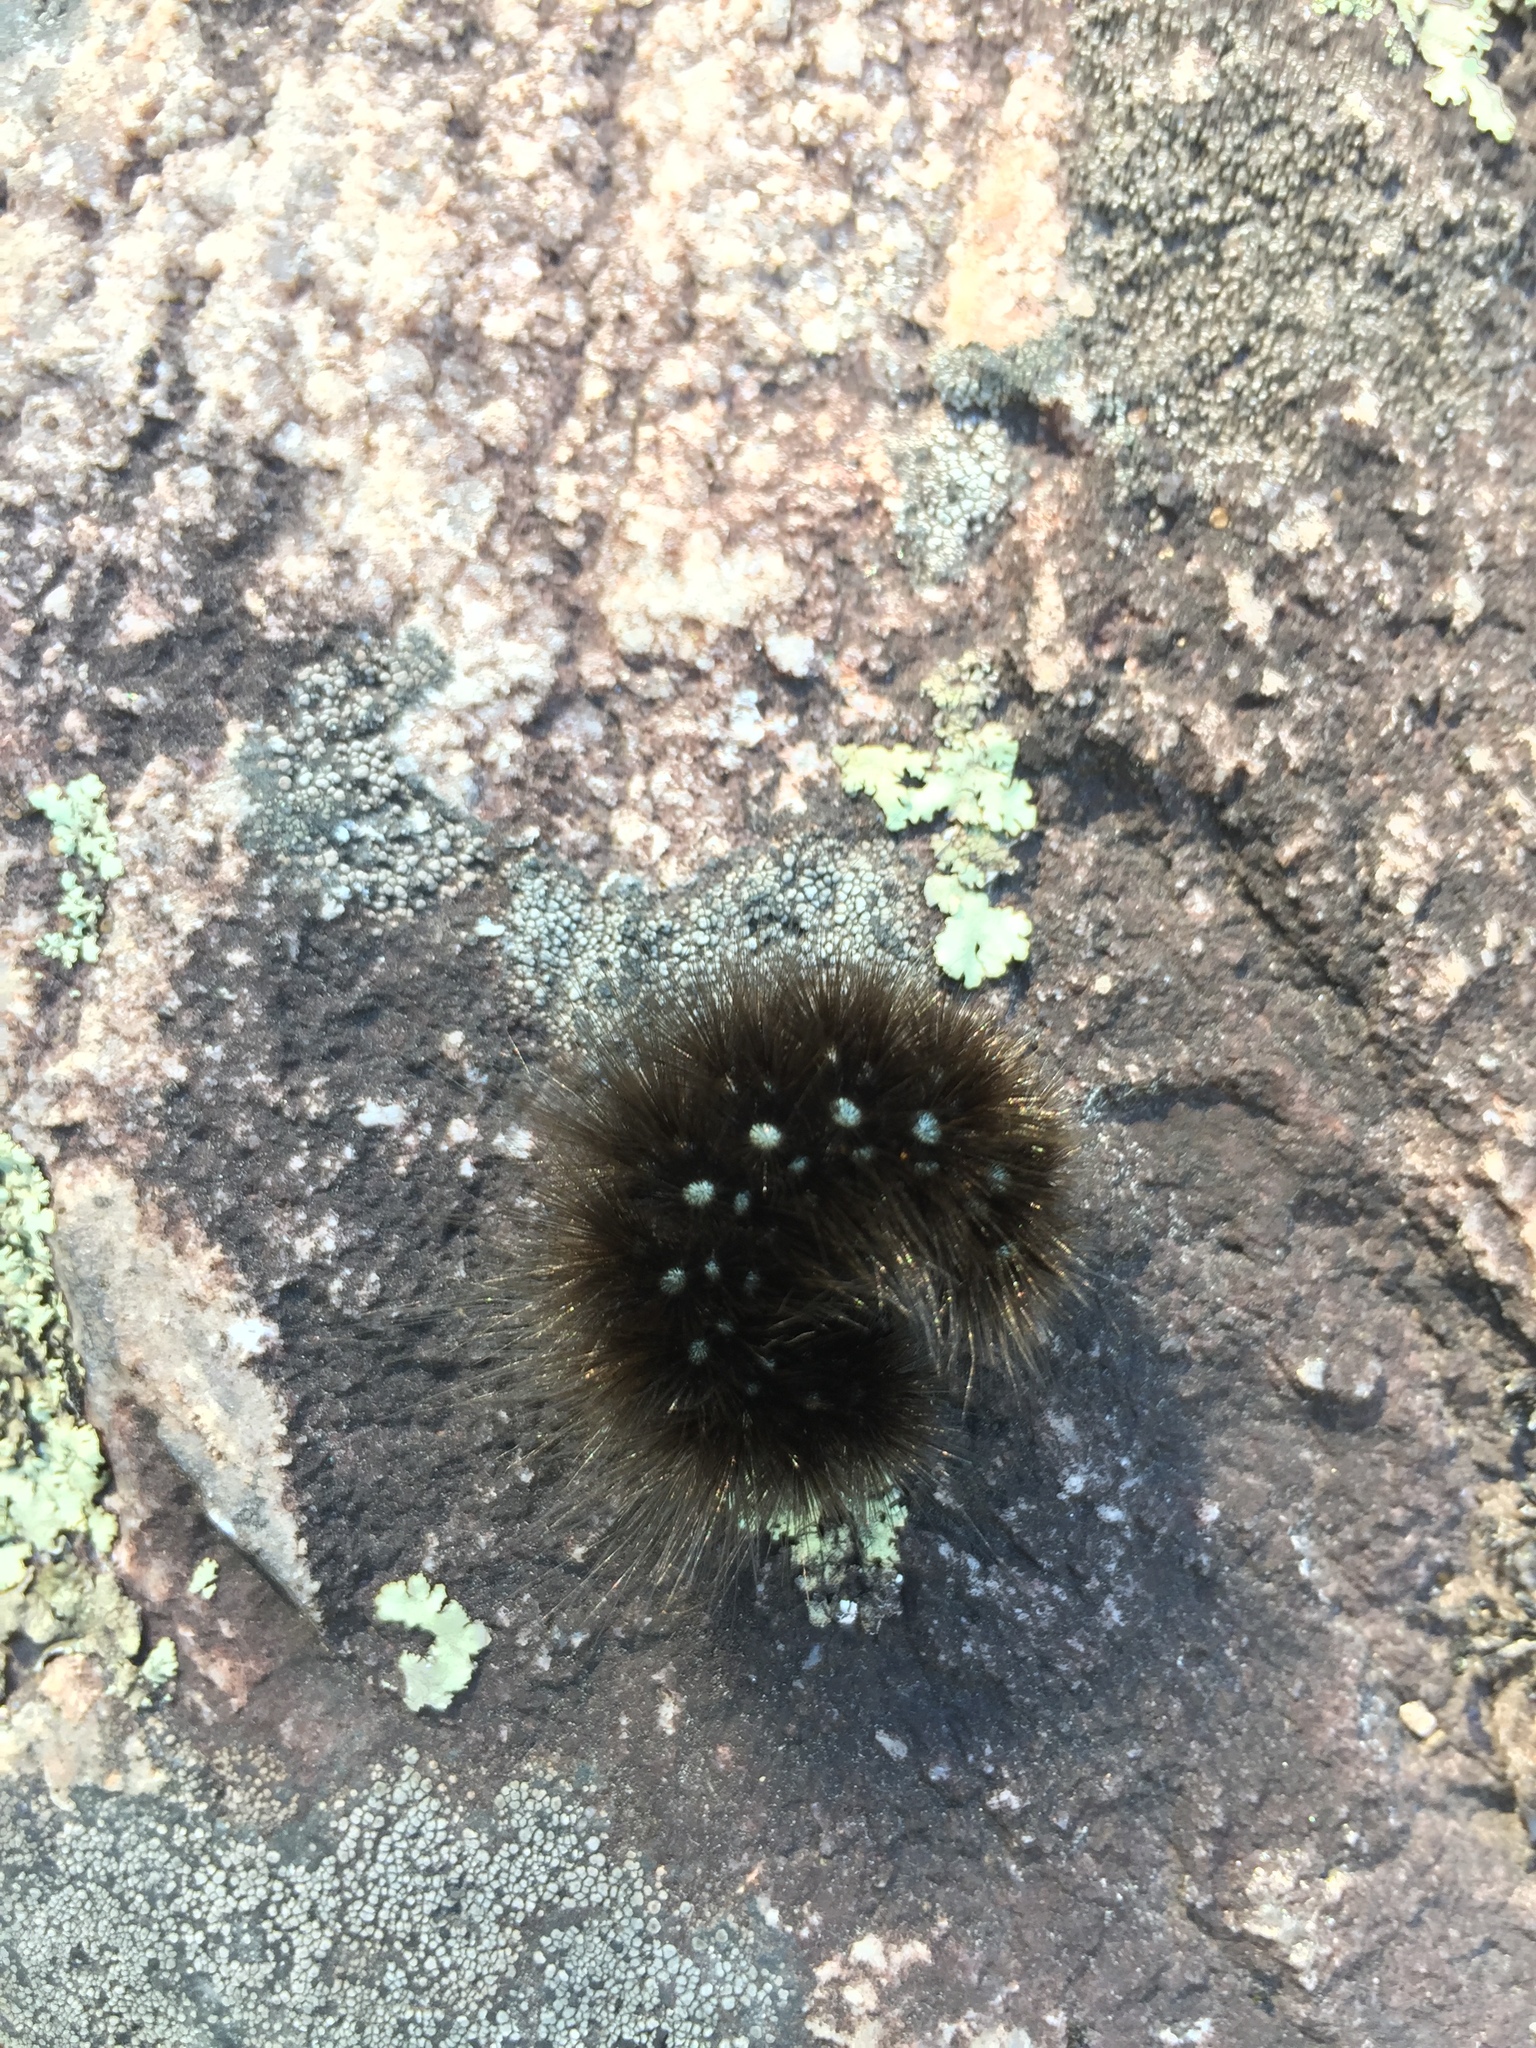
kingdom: Animalia
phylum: Arthropoda
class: Insecta
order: Lepidoptera
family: Erebidae
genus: Arctia
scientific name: Arctia parthenos
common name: St. lawrence tiger moth
